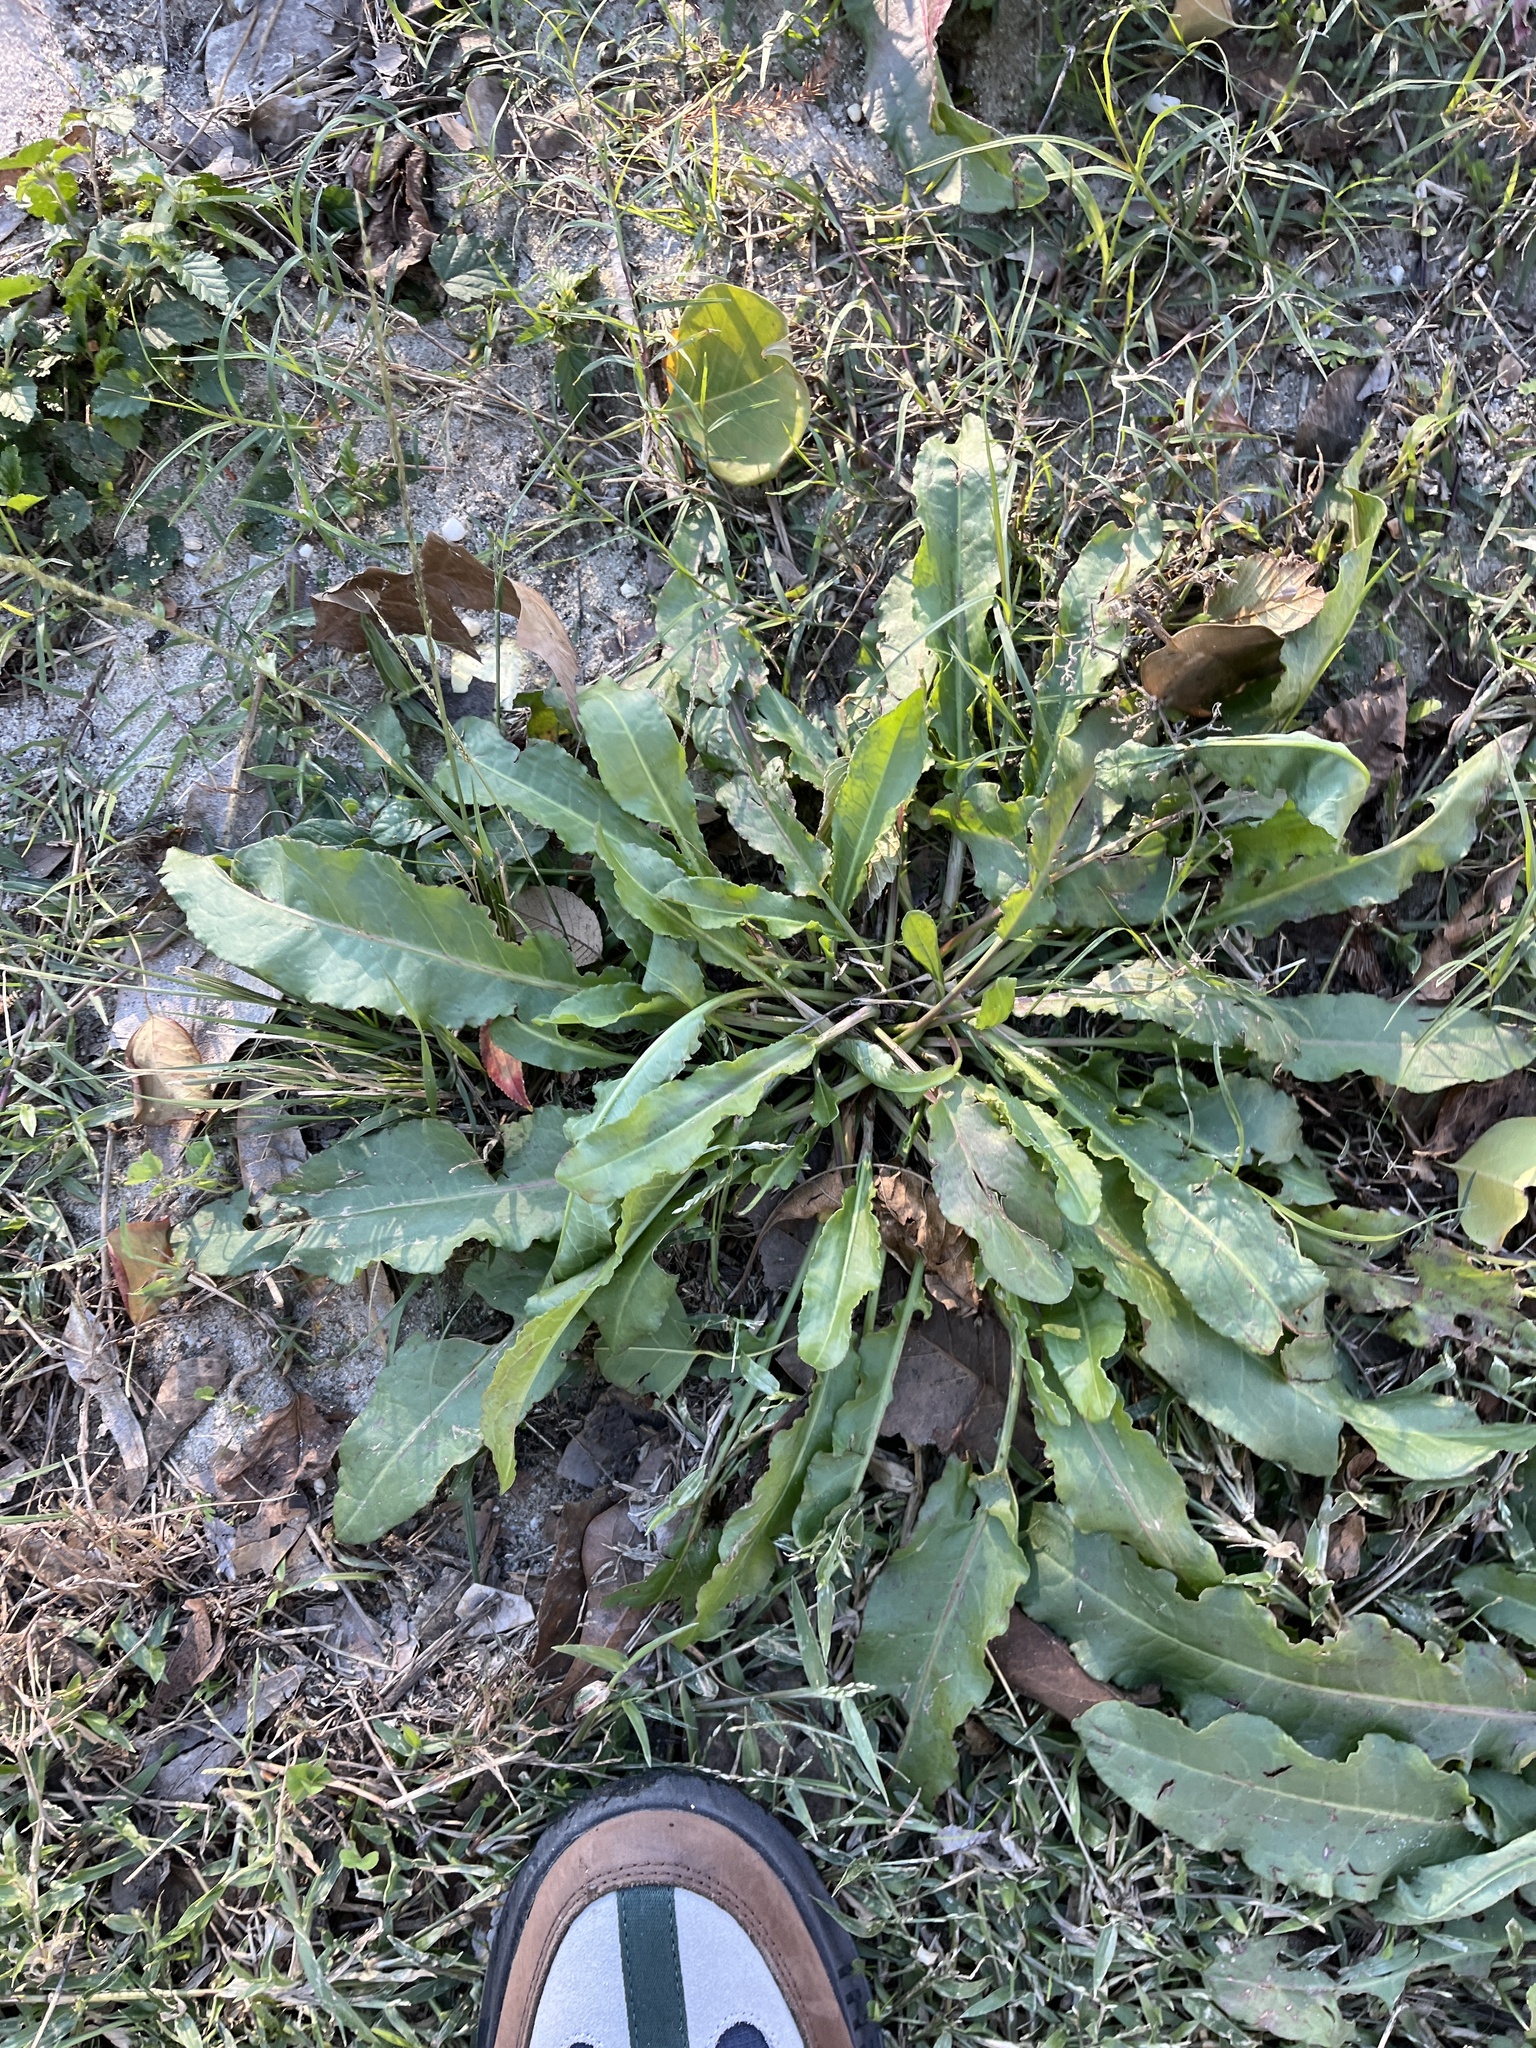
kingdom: Plantae
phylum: Tracheophyta
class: Magnoliopsida
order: Caryophyllales
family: Polygonaceae
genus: Rumex
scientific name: Rumex crispus
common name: Curled dock
